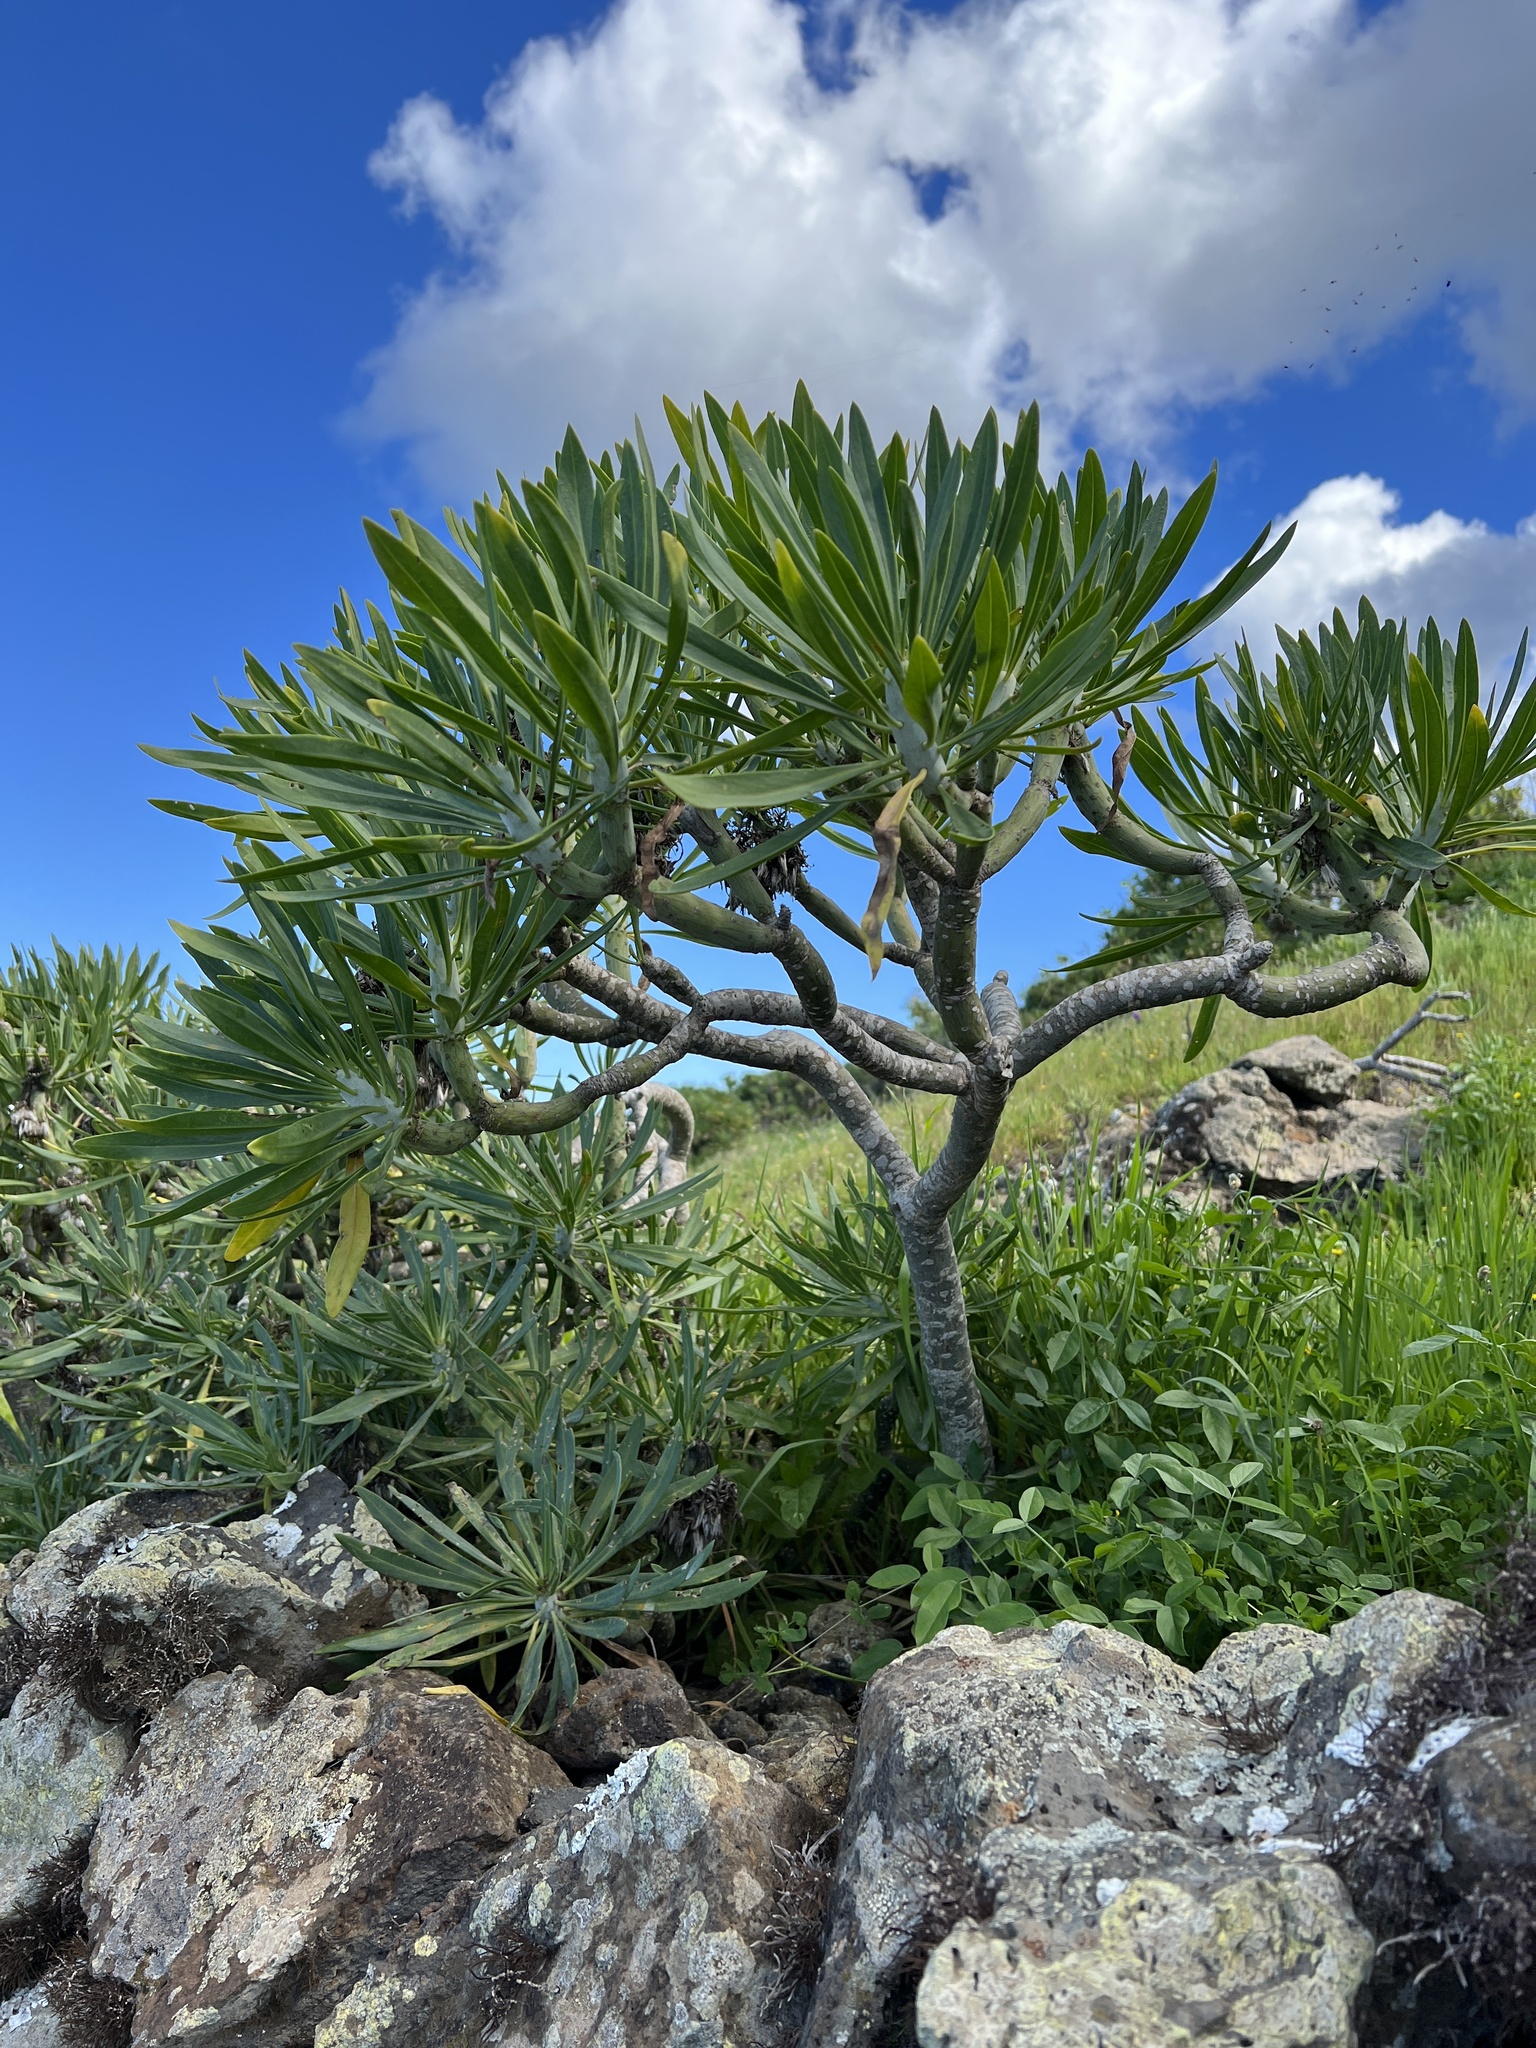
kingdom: Plantae
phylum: Tracheophyta
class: Magnoliopsida
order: Asterales
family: Asteraceae
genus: Kleinia
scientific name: Kleinia neriifolia
